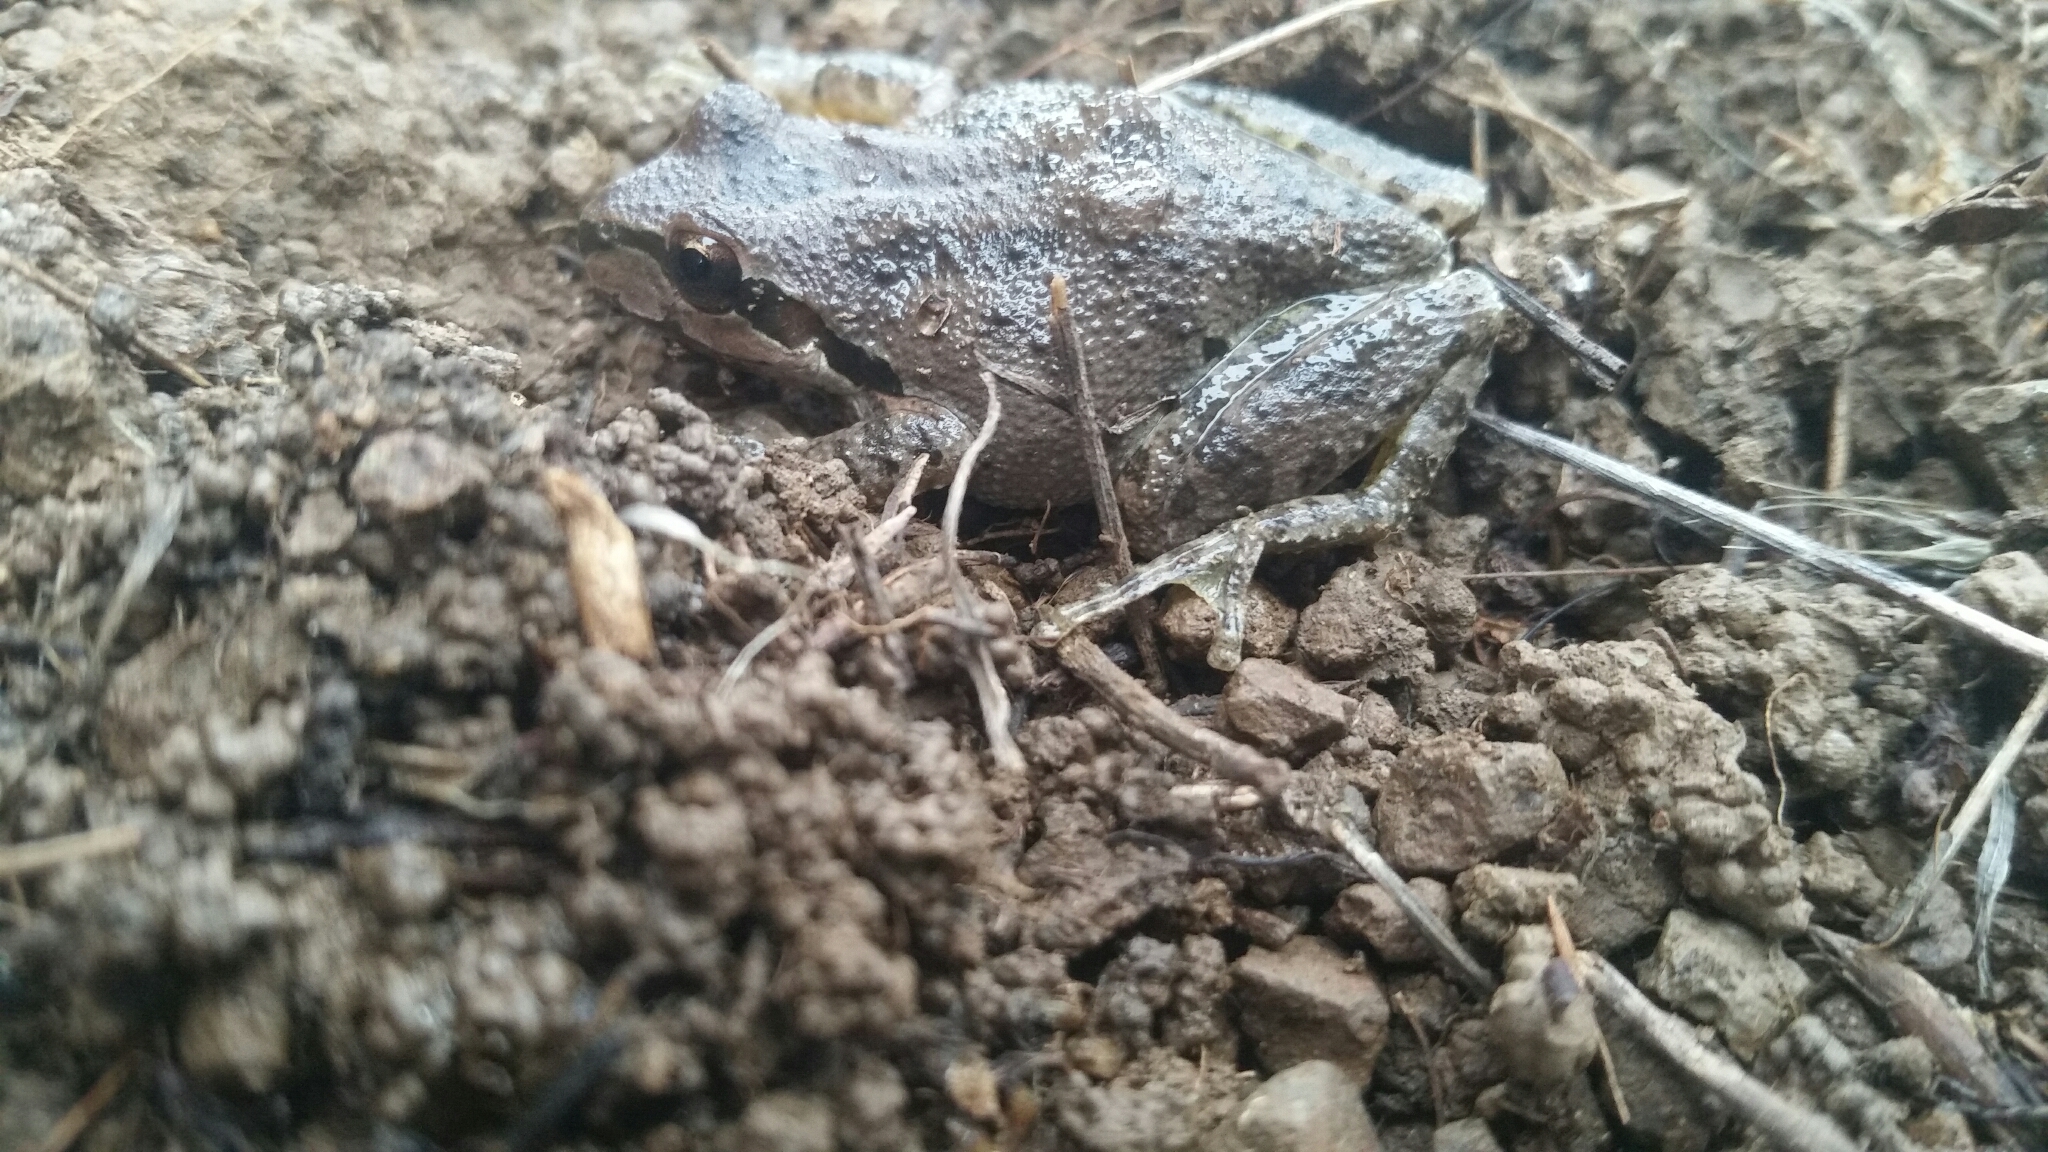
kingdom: Animalia
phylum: Chordata
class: Amphibia
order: Anura
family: Hylidae
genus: Pseudacris
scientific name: Pseudacris regilla
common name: Pacific chorus frog
